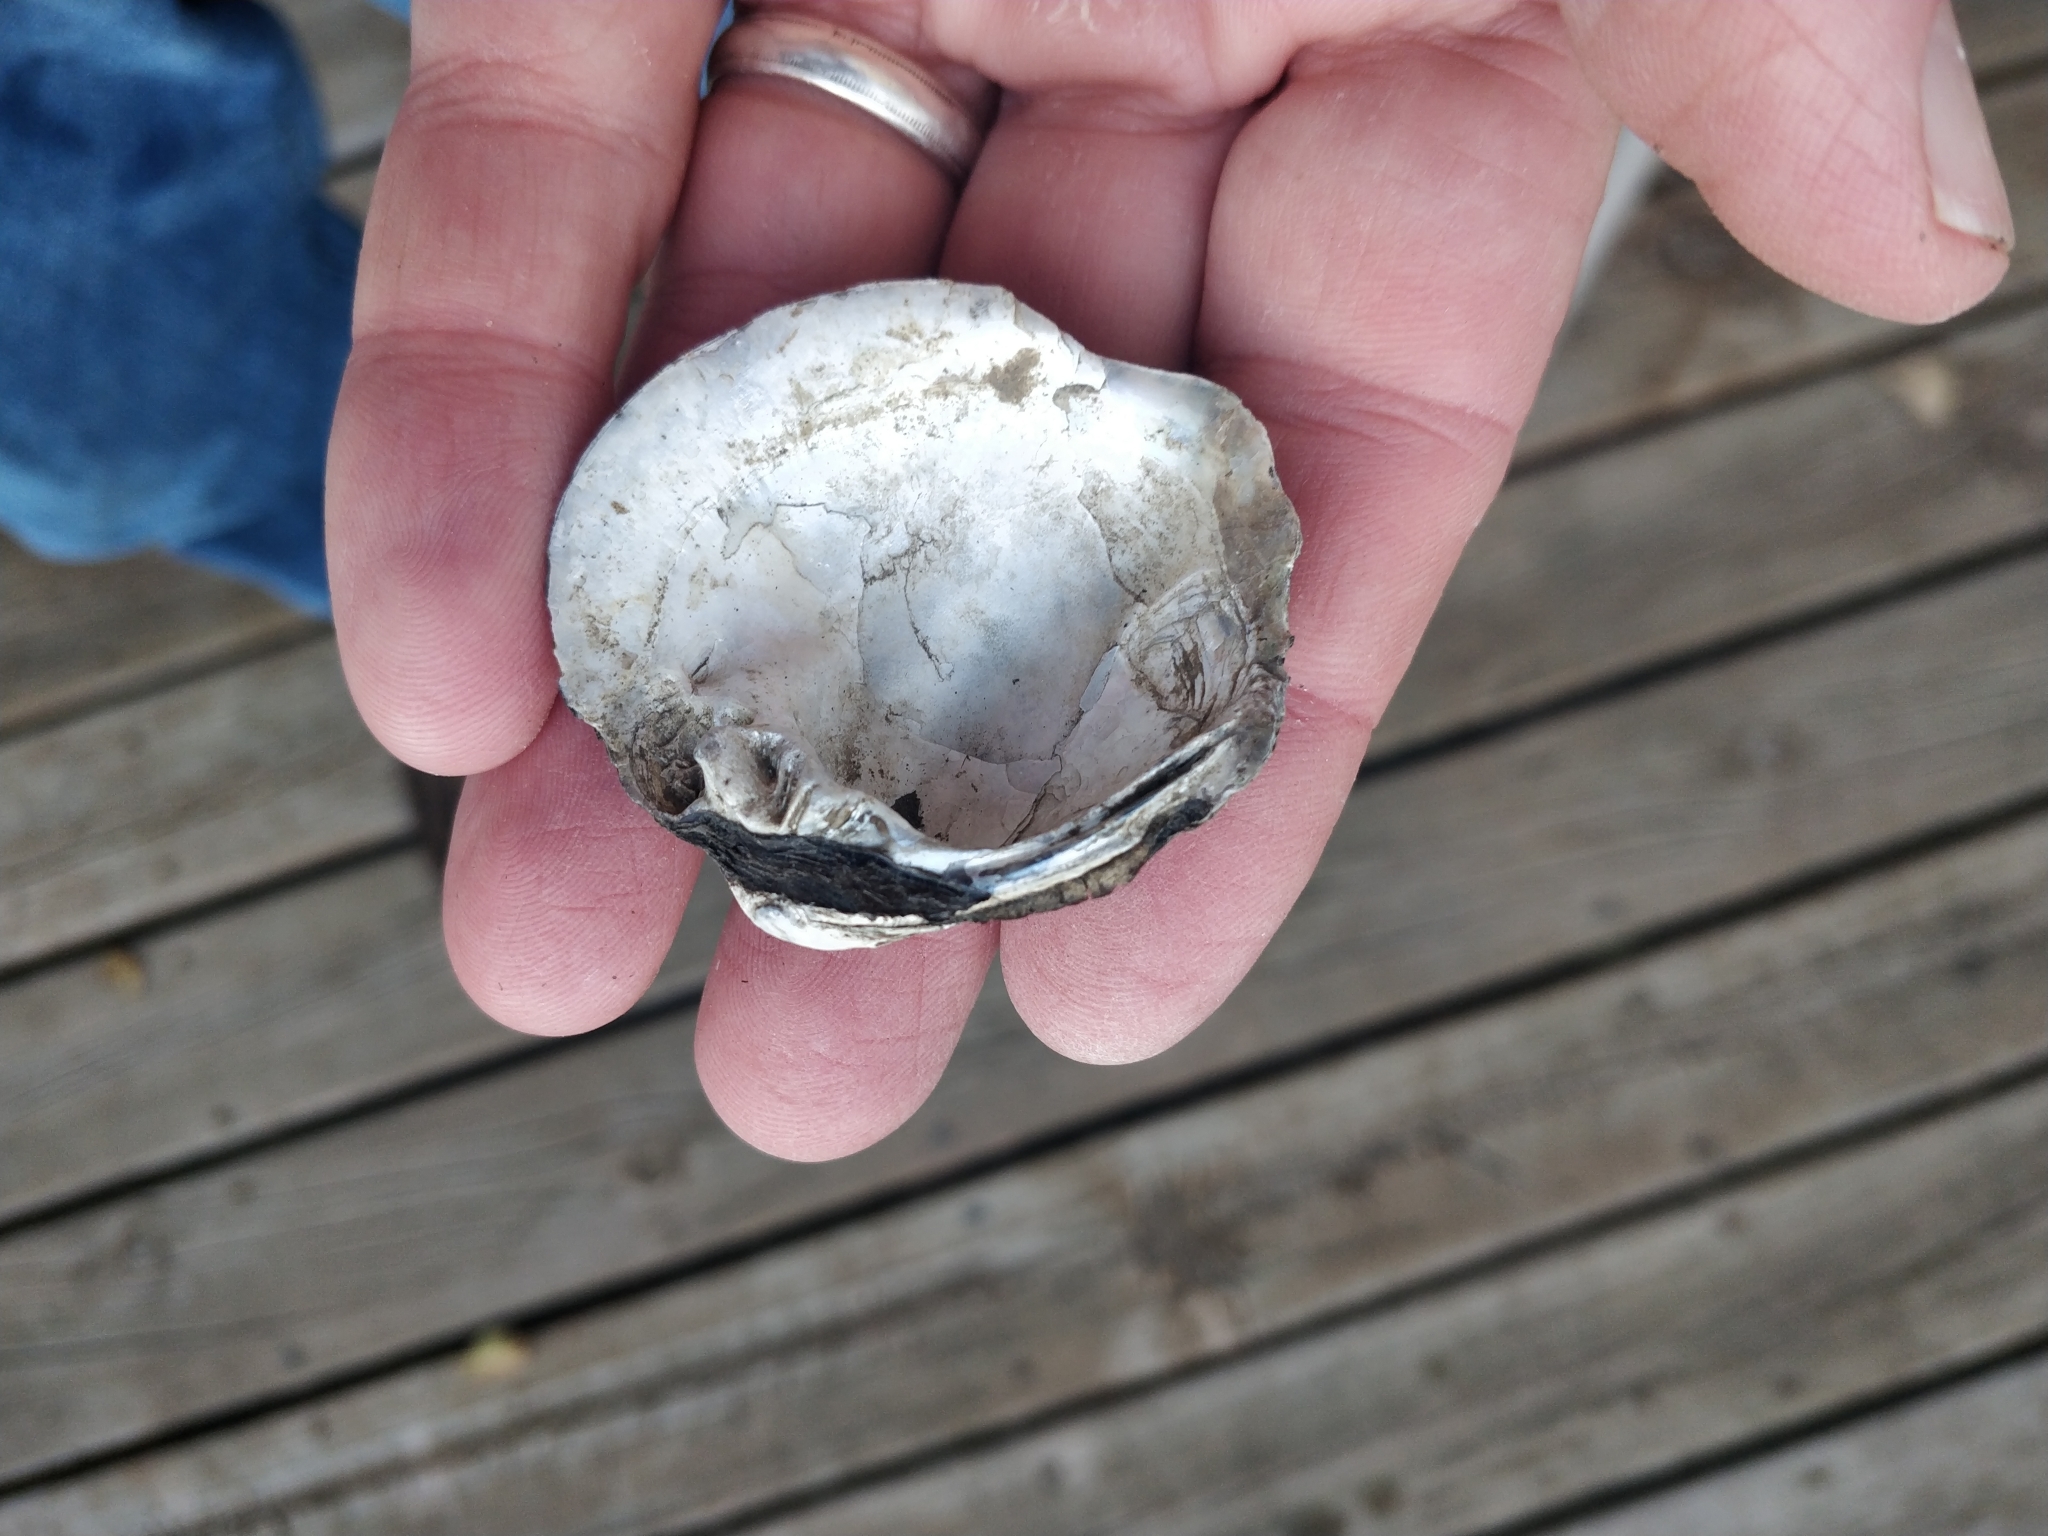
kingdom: Animalia
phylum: Mollusca
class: Bivalvia
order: Unionida
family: Unionidae
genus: Cyclonaias
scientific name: Cyclonaias pustulosa
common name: Pimpleback
